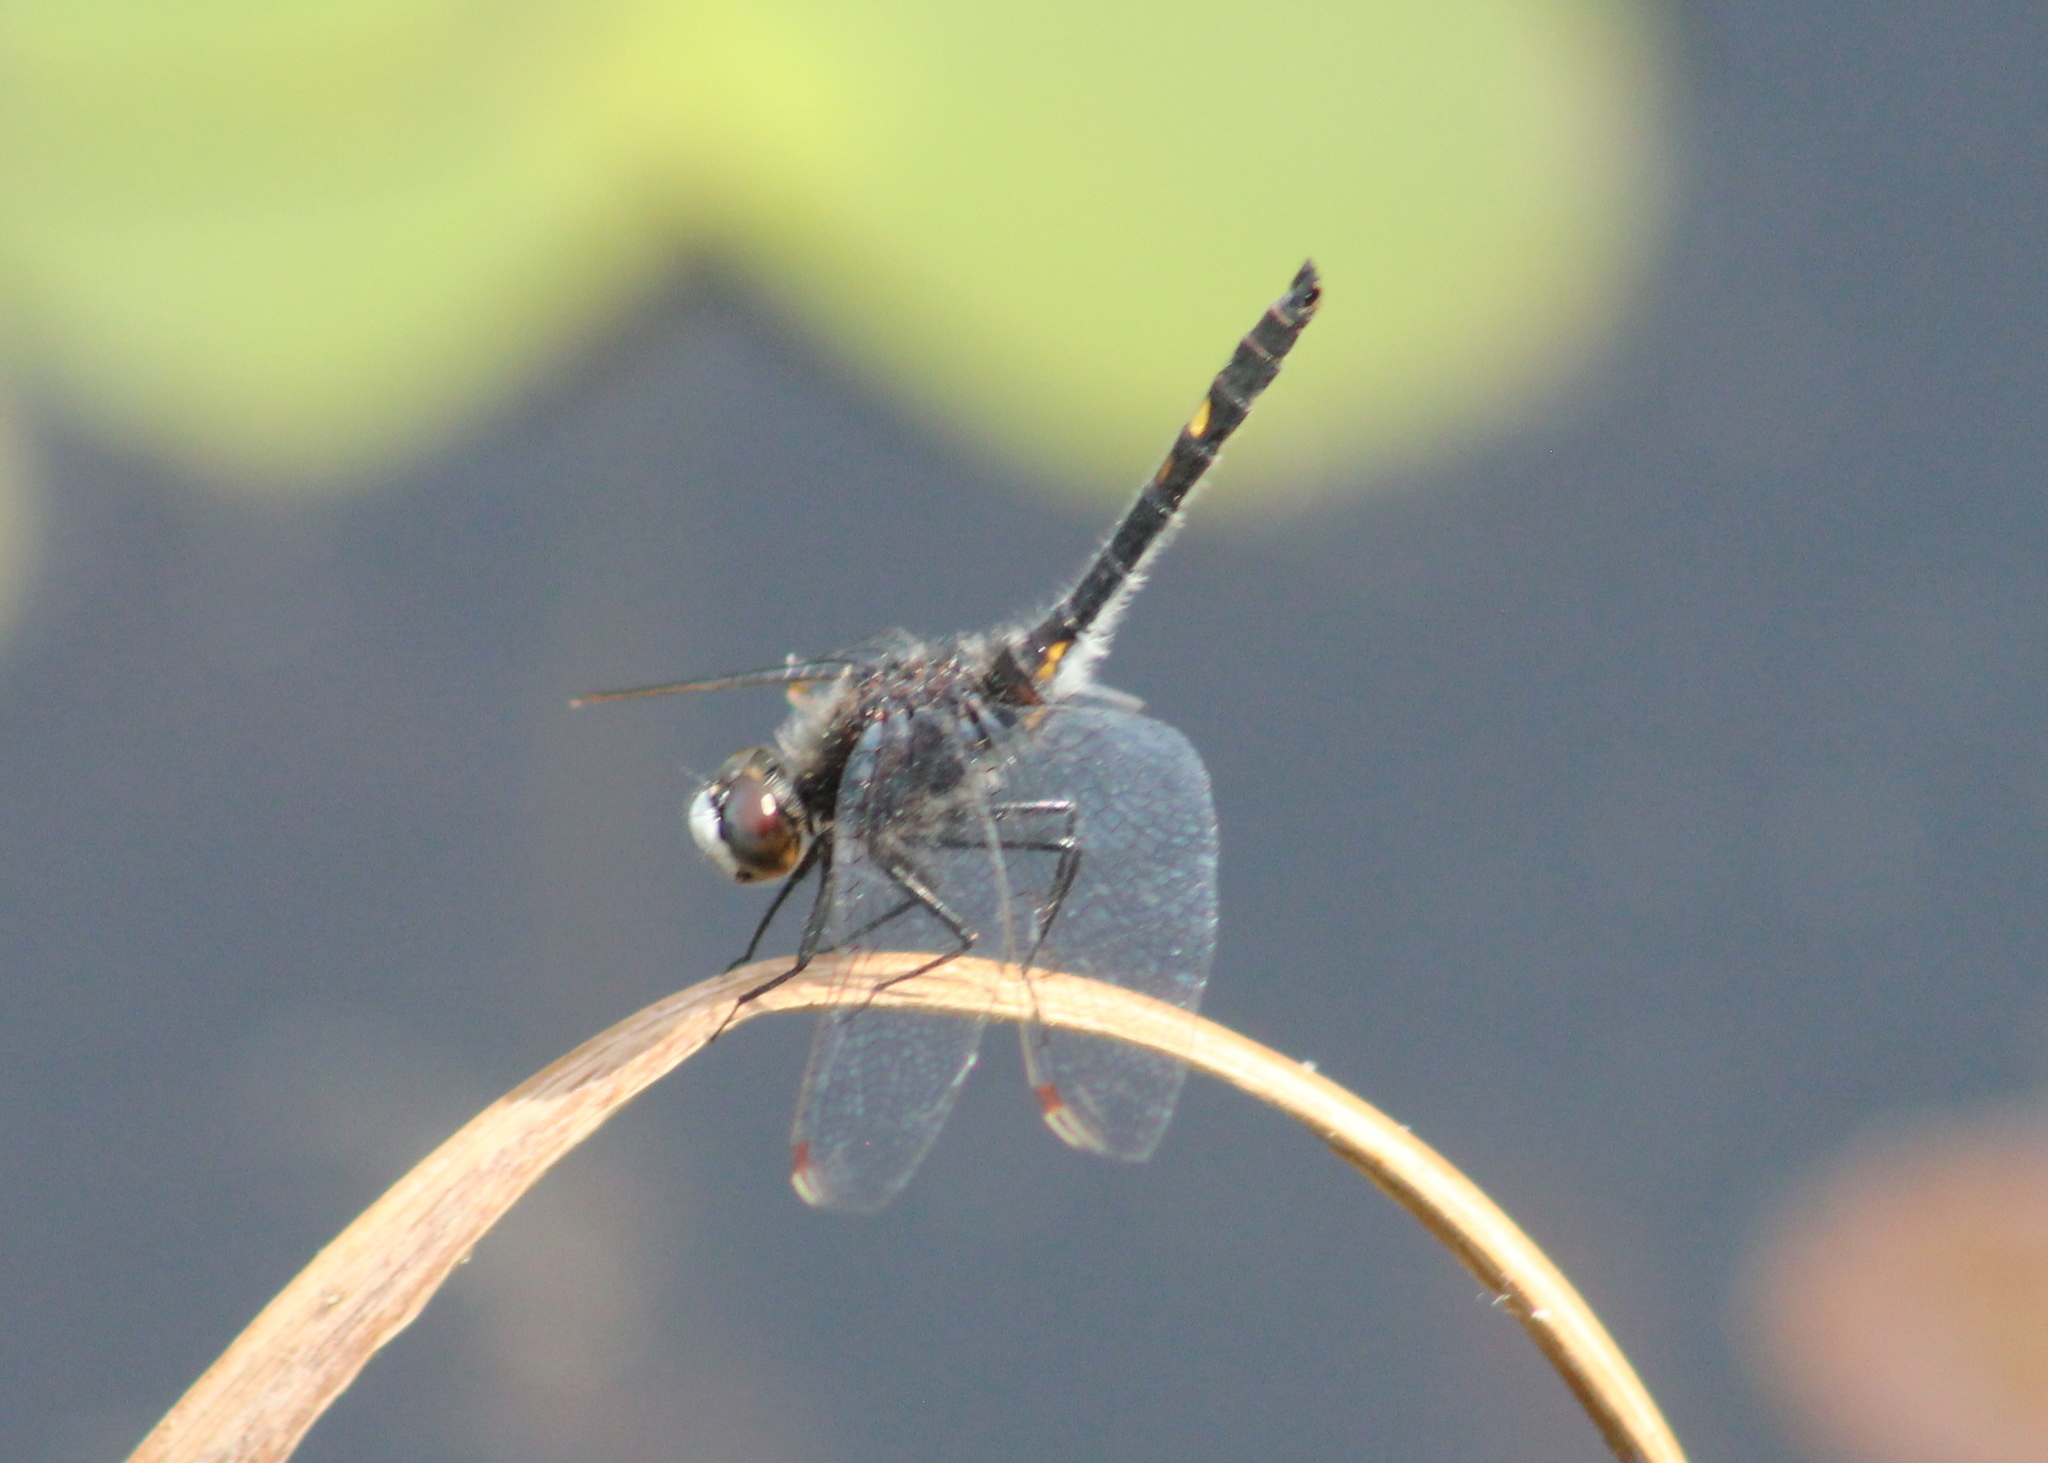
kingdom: Animalia
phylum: Arthropoda
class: Insecta
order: Odonata
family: Libellulidae
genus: Leucorrhinia
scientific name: Leucorrhinia intacta
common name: Dot-tailed whiteface
